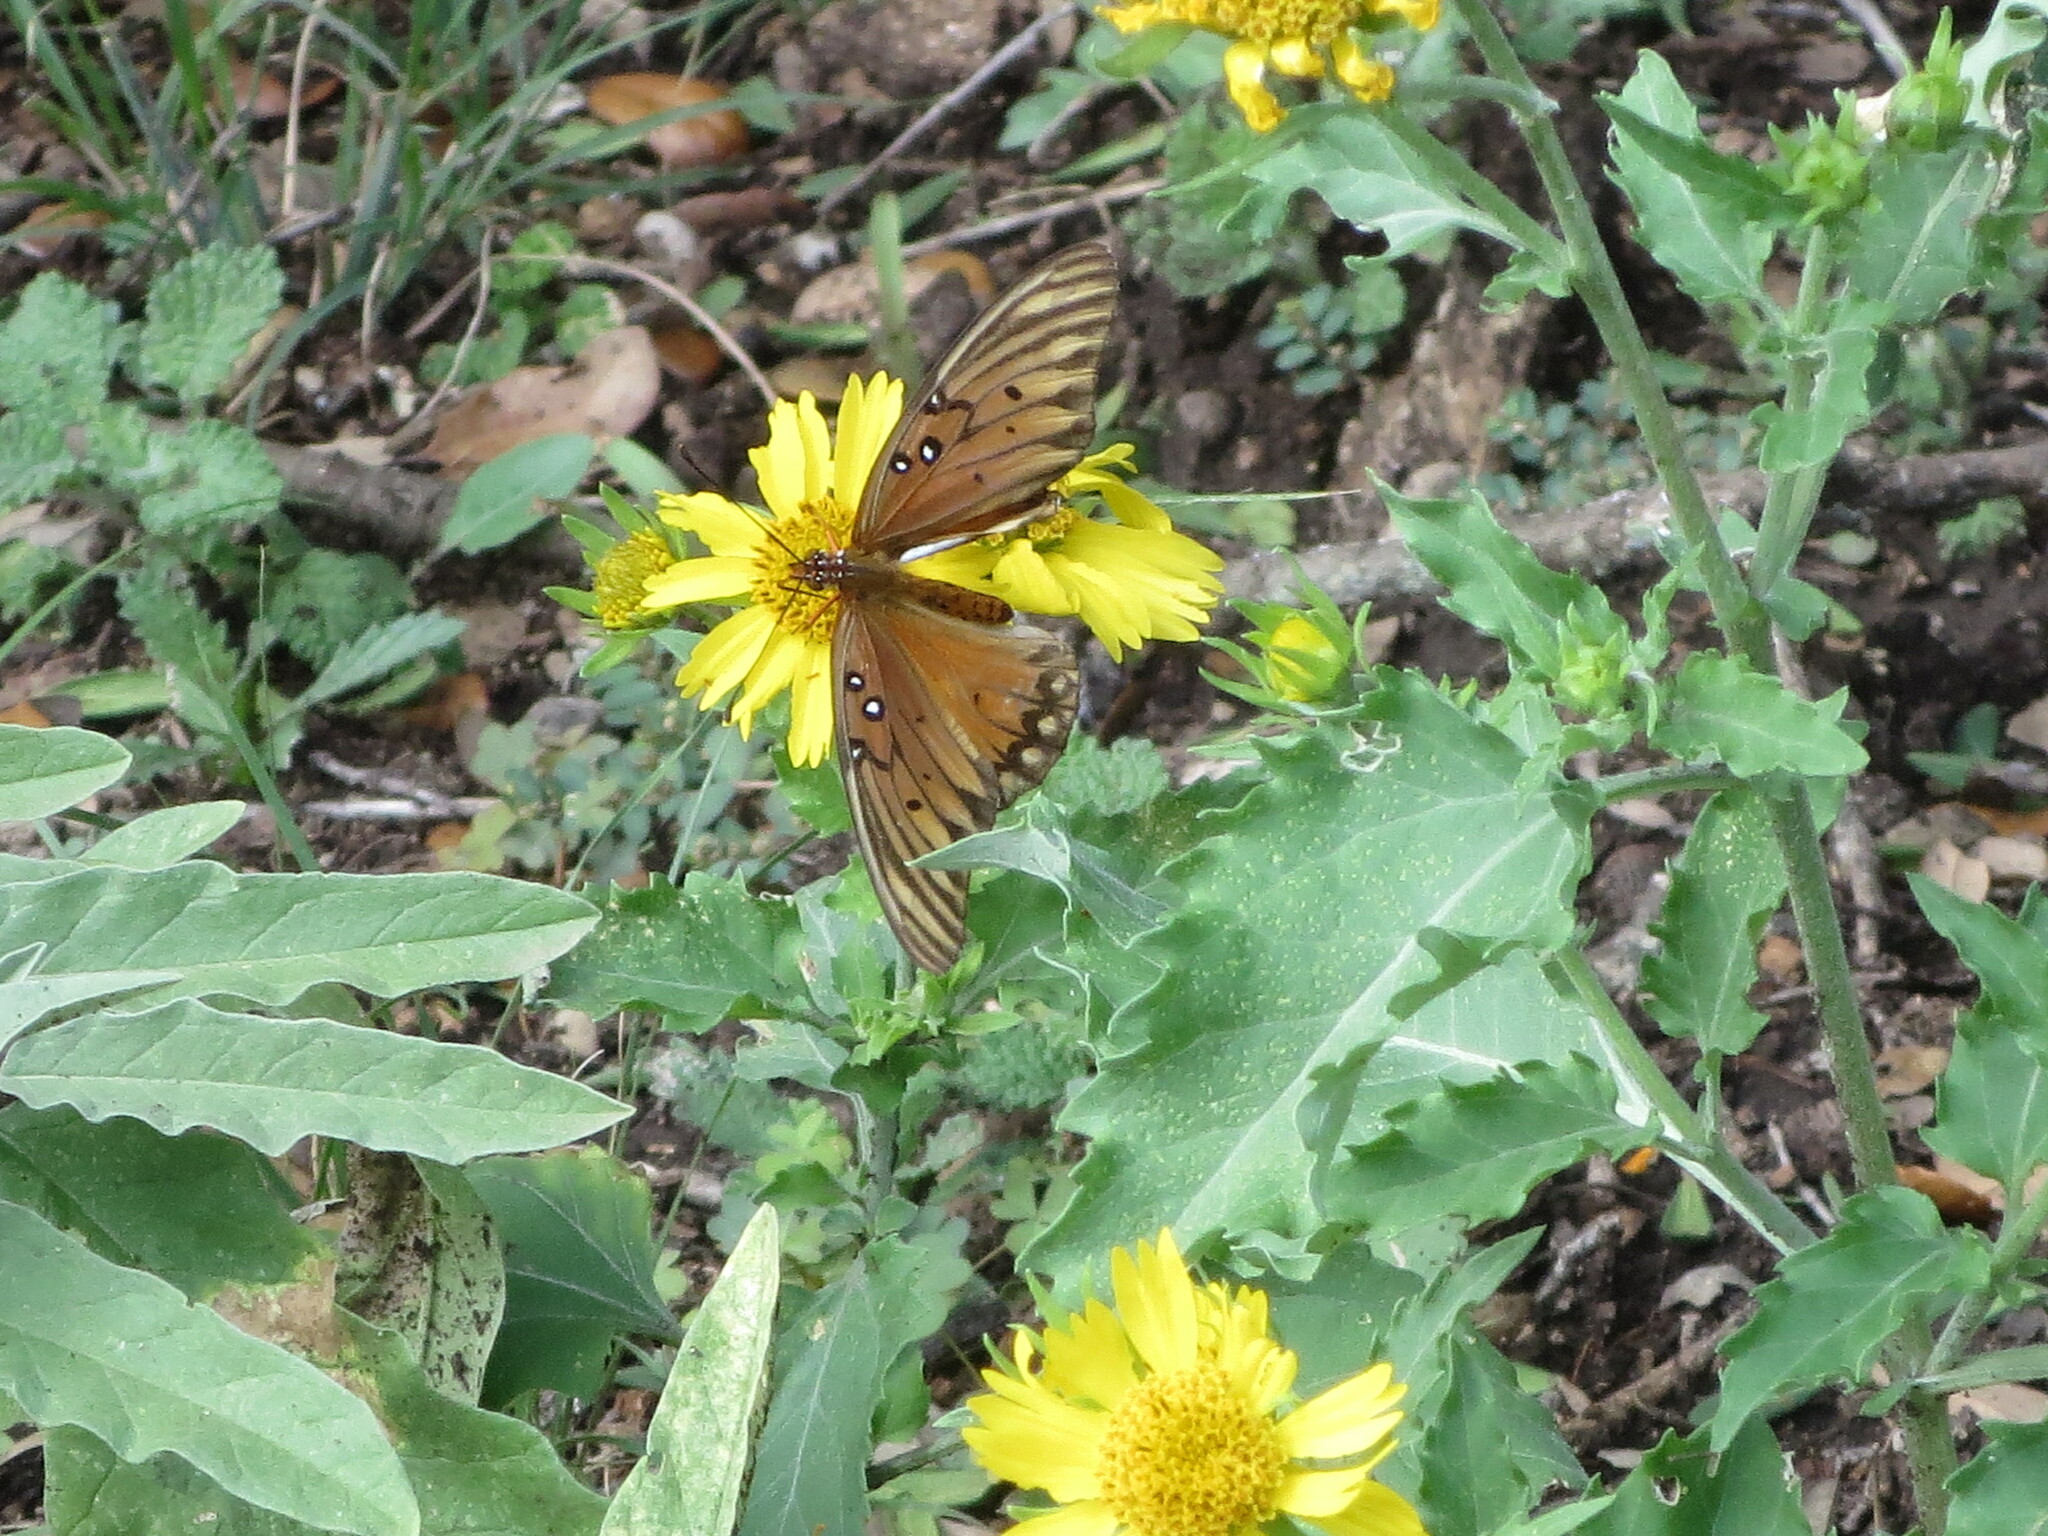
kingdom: Animalia
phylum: Arthropoda
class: Insecta
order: Lepidoptera
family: Nymphalidae
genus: Dione
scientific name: Dione vanillae
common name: Gulf fritillary
